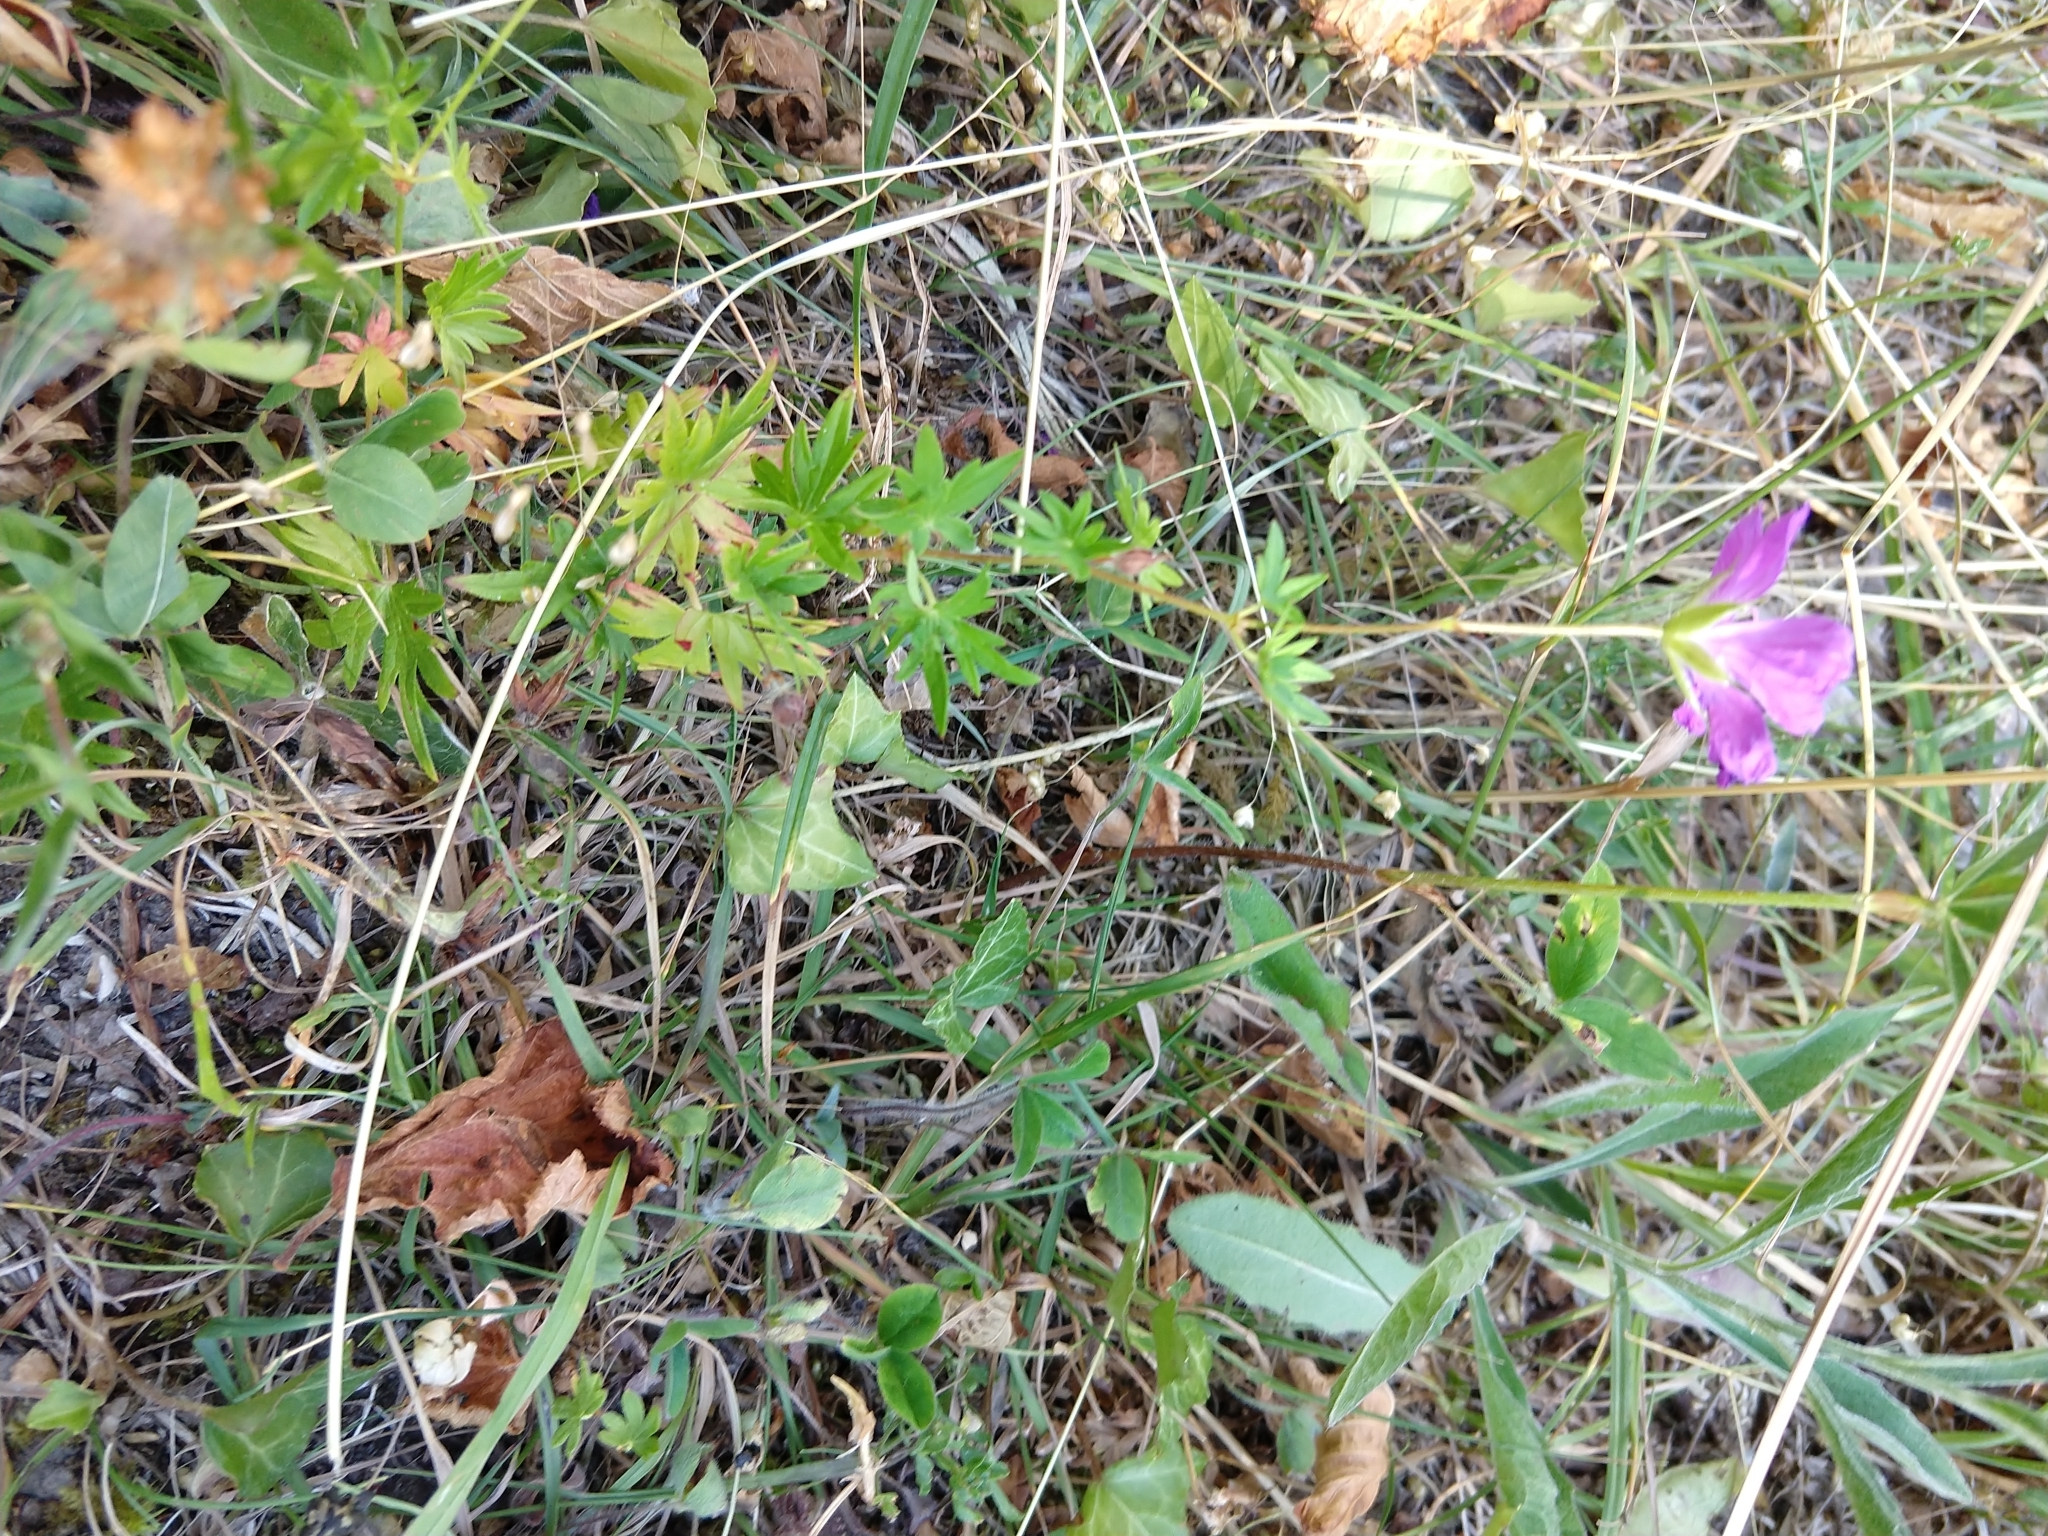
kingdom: Plantae
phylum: Tracheophyta
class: Magnoliopsida
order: Geraniales
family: Geraniaceae
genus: Geranium
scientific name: Geranium sanguineum
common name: Bloody crane's-bill
